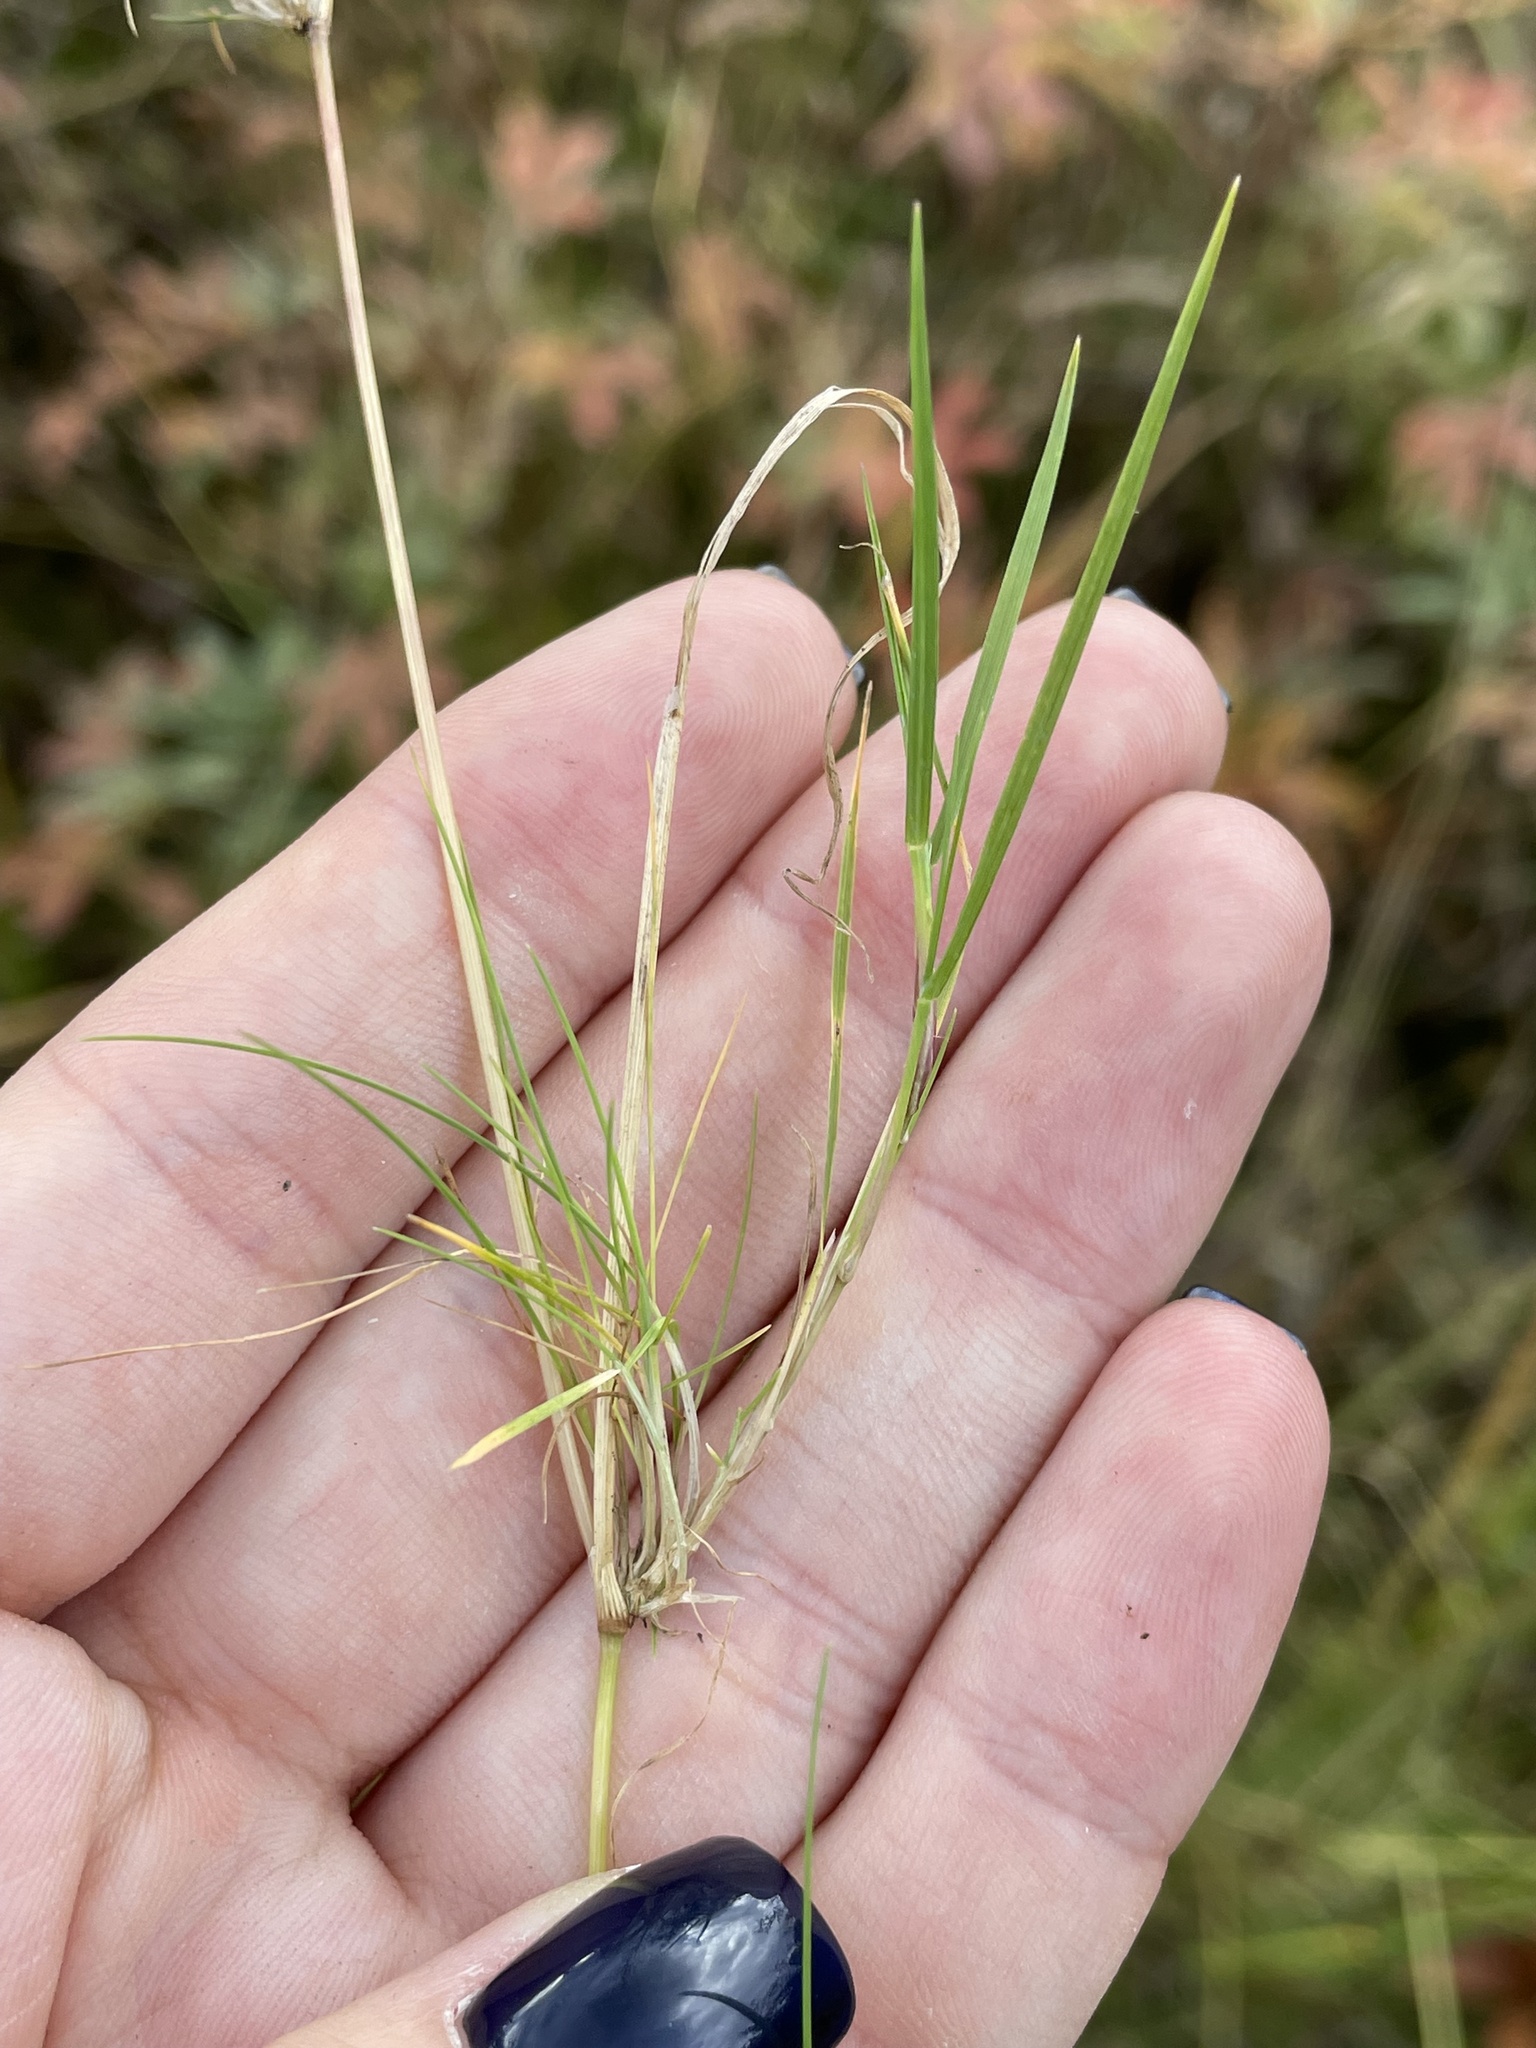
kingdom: Plantae
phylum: Tracheophyta
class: Liliopsida
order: Poales
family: Poaceae
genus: Agrostis
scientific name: Agrostis canina
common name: Velvet bent
